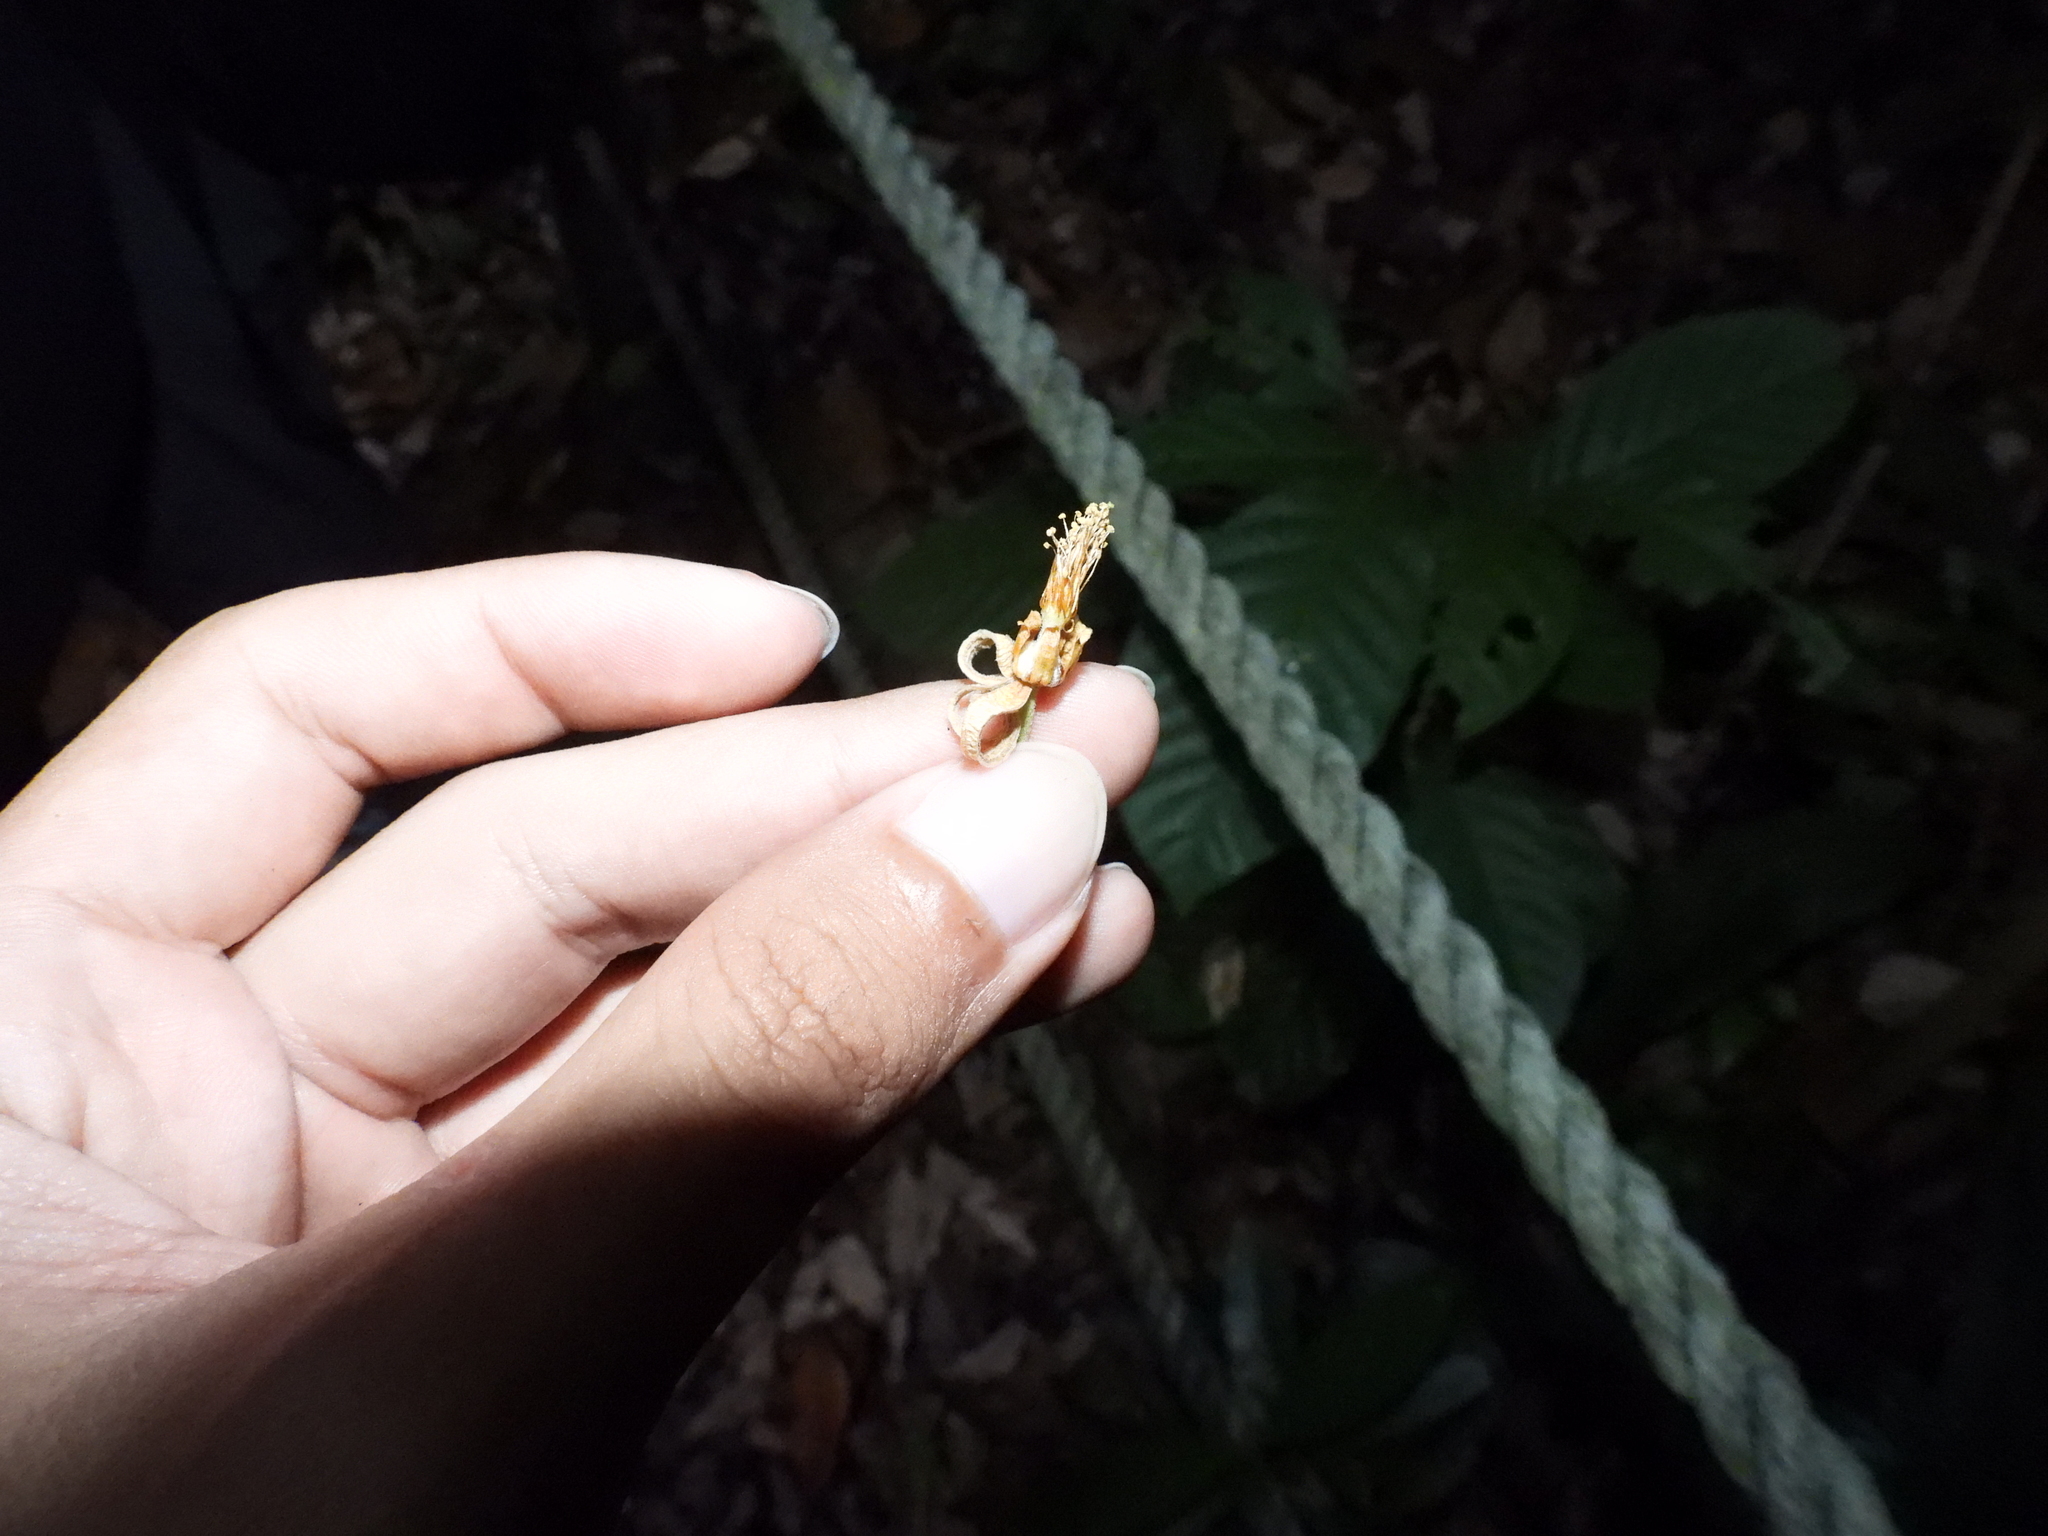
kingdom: Plantae
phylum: Tracheophyta
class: Magnoliopsida
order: Malvales
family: Malvaceae
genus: Grewia
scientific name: Grewia laevigata
